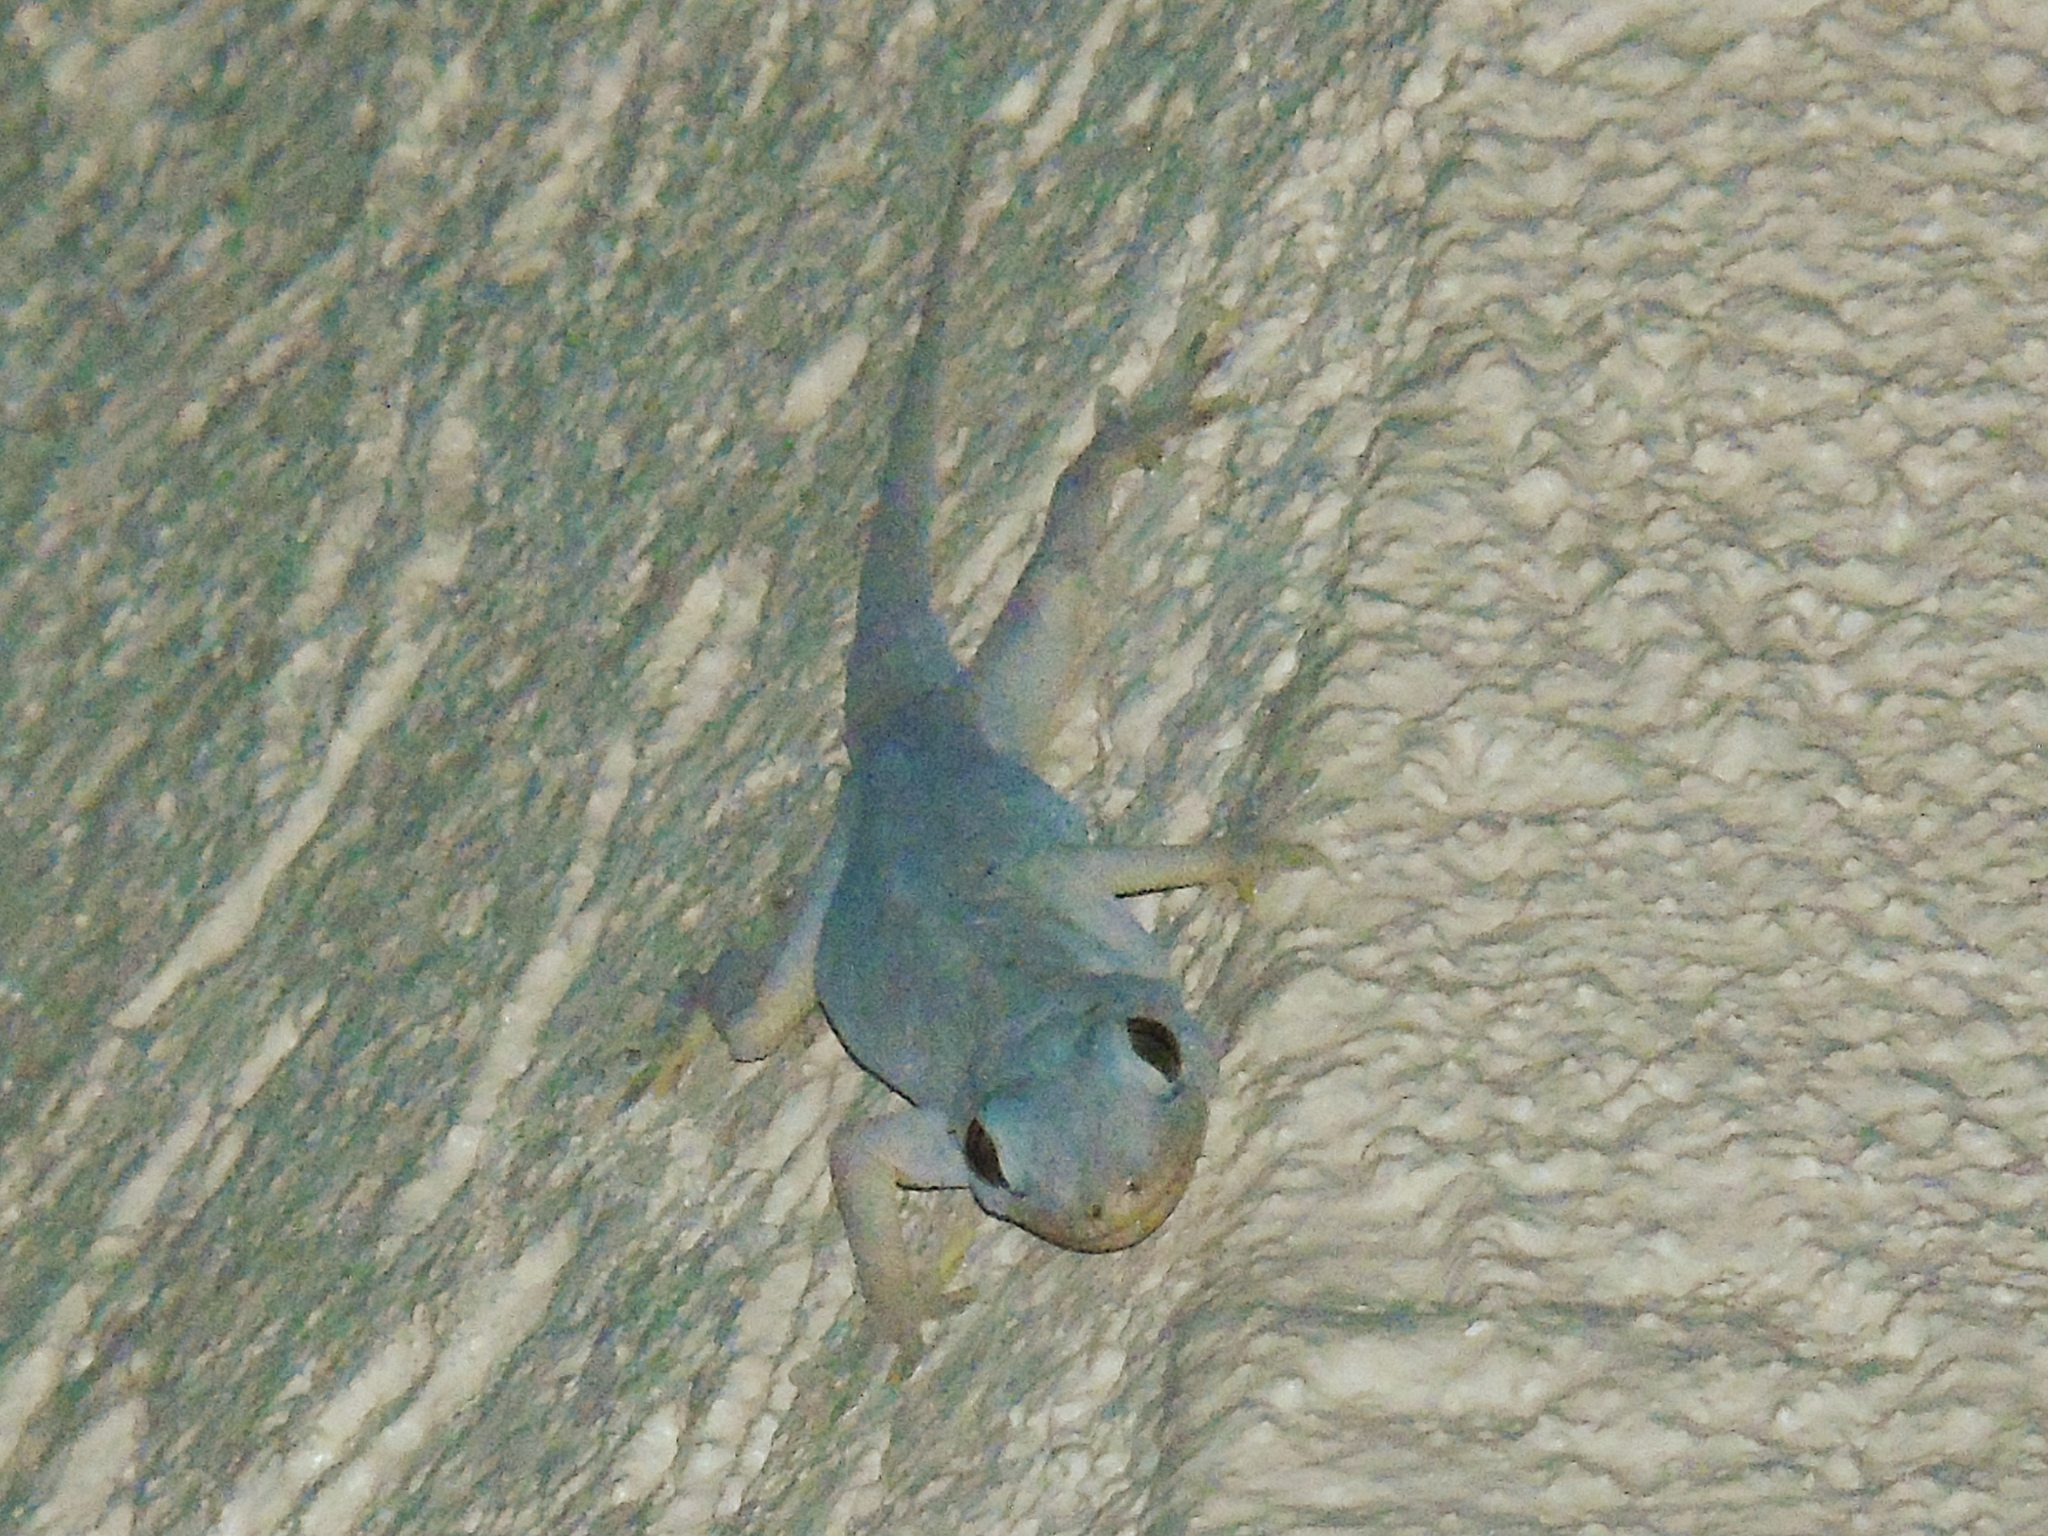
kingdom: Animalia
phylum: Chordata
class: Squamata
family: Gekkonidae
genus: Hemidactylus
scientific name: Hemidactylus flaviviridis
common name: Northern house gecko
